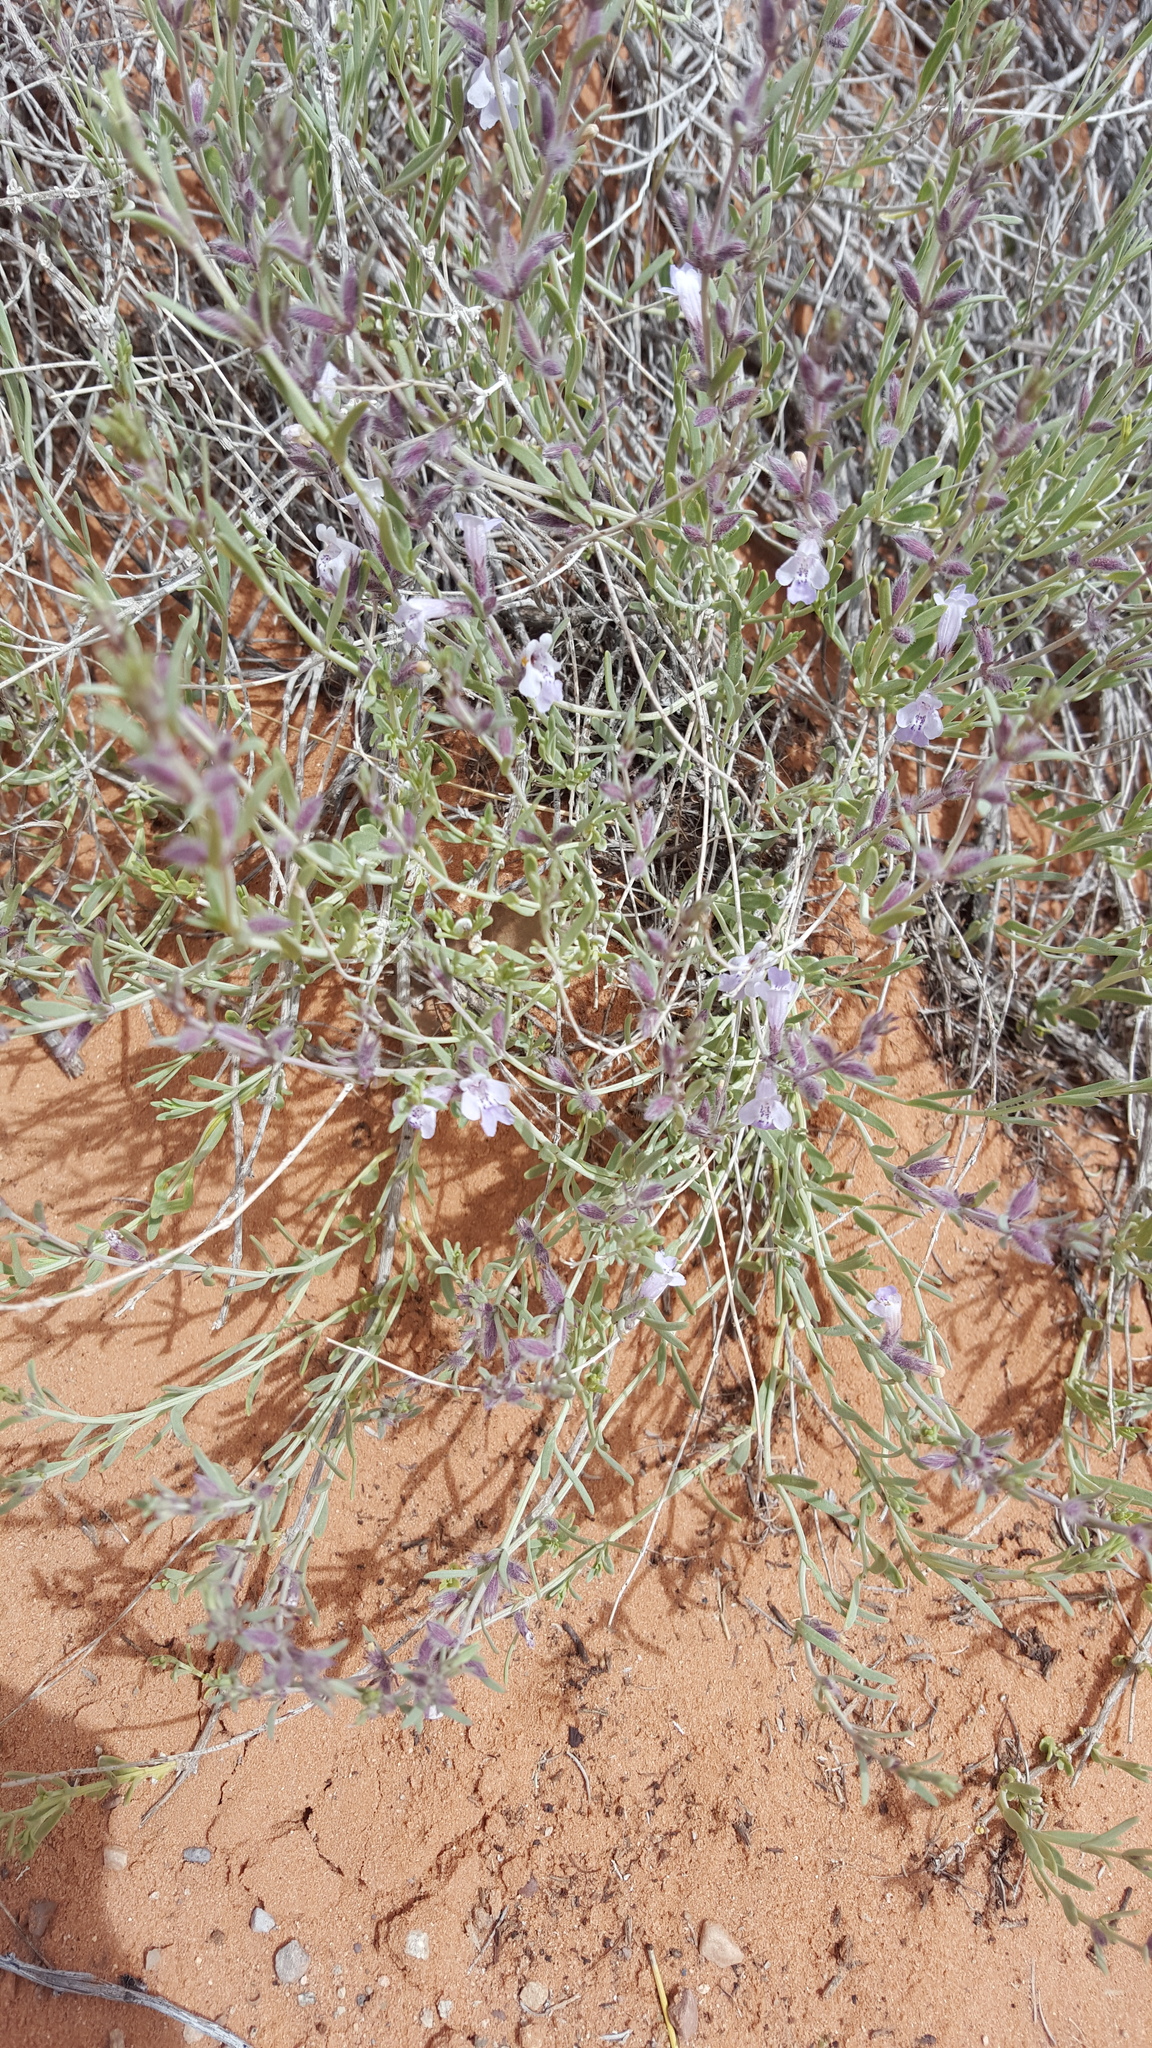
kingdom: Plantae
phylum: Tracheophyta
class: Magnoliopsida
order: Lamiales
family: Lamiaceae
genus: Poliomintha
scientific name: Poliomintha incana
